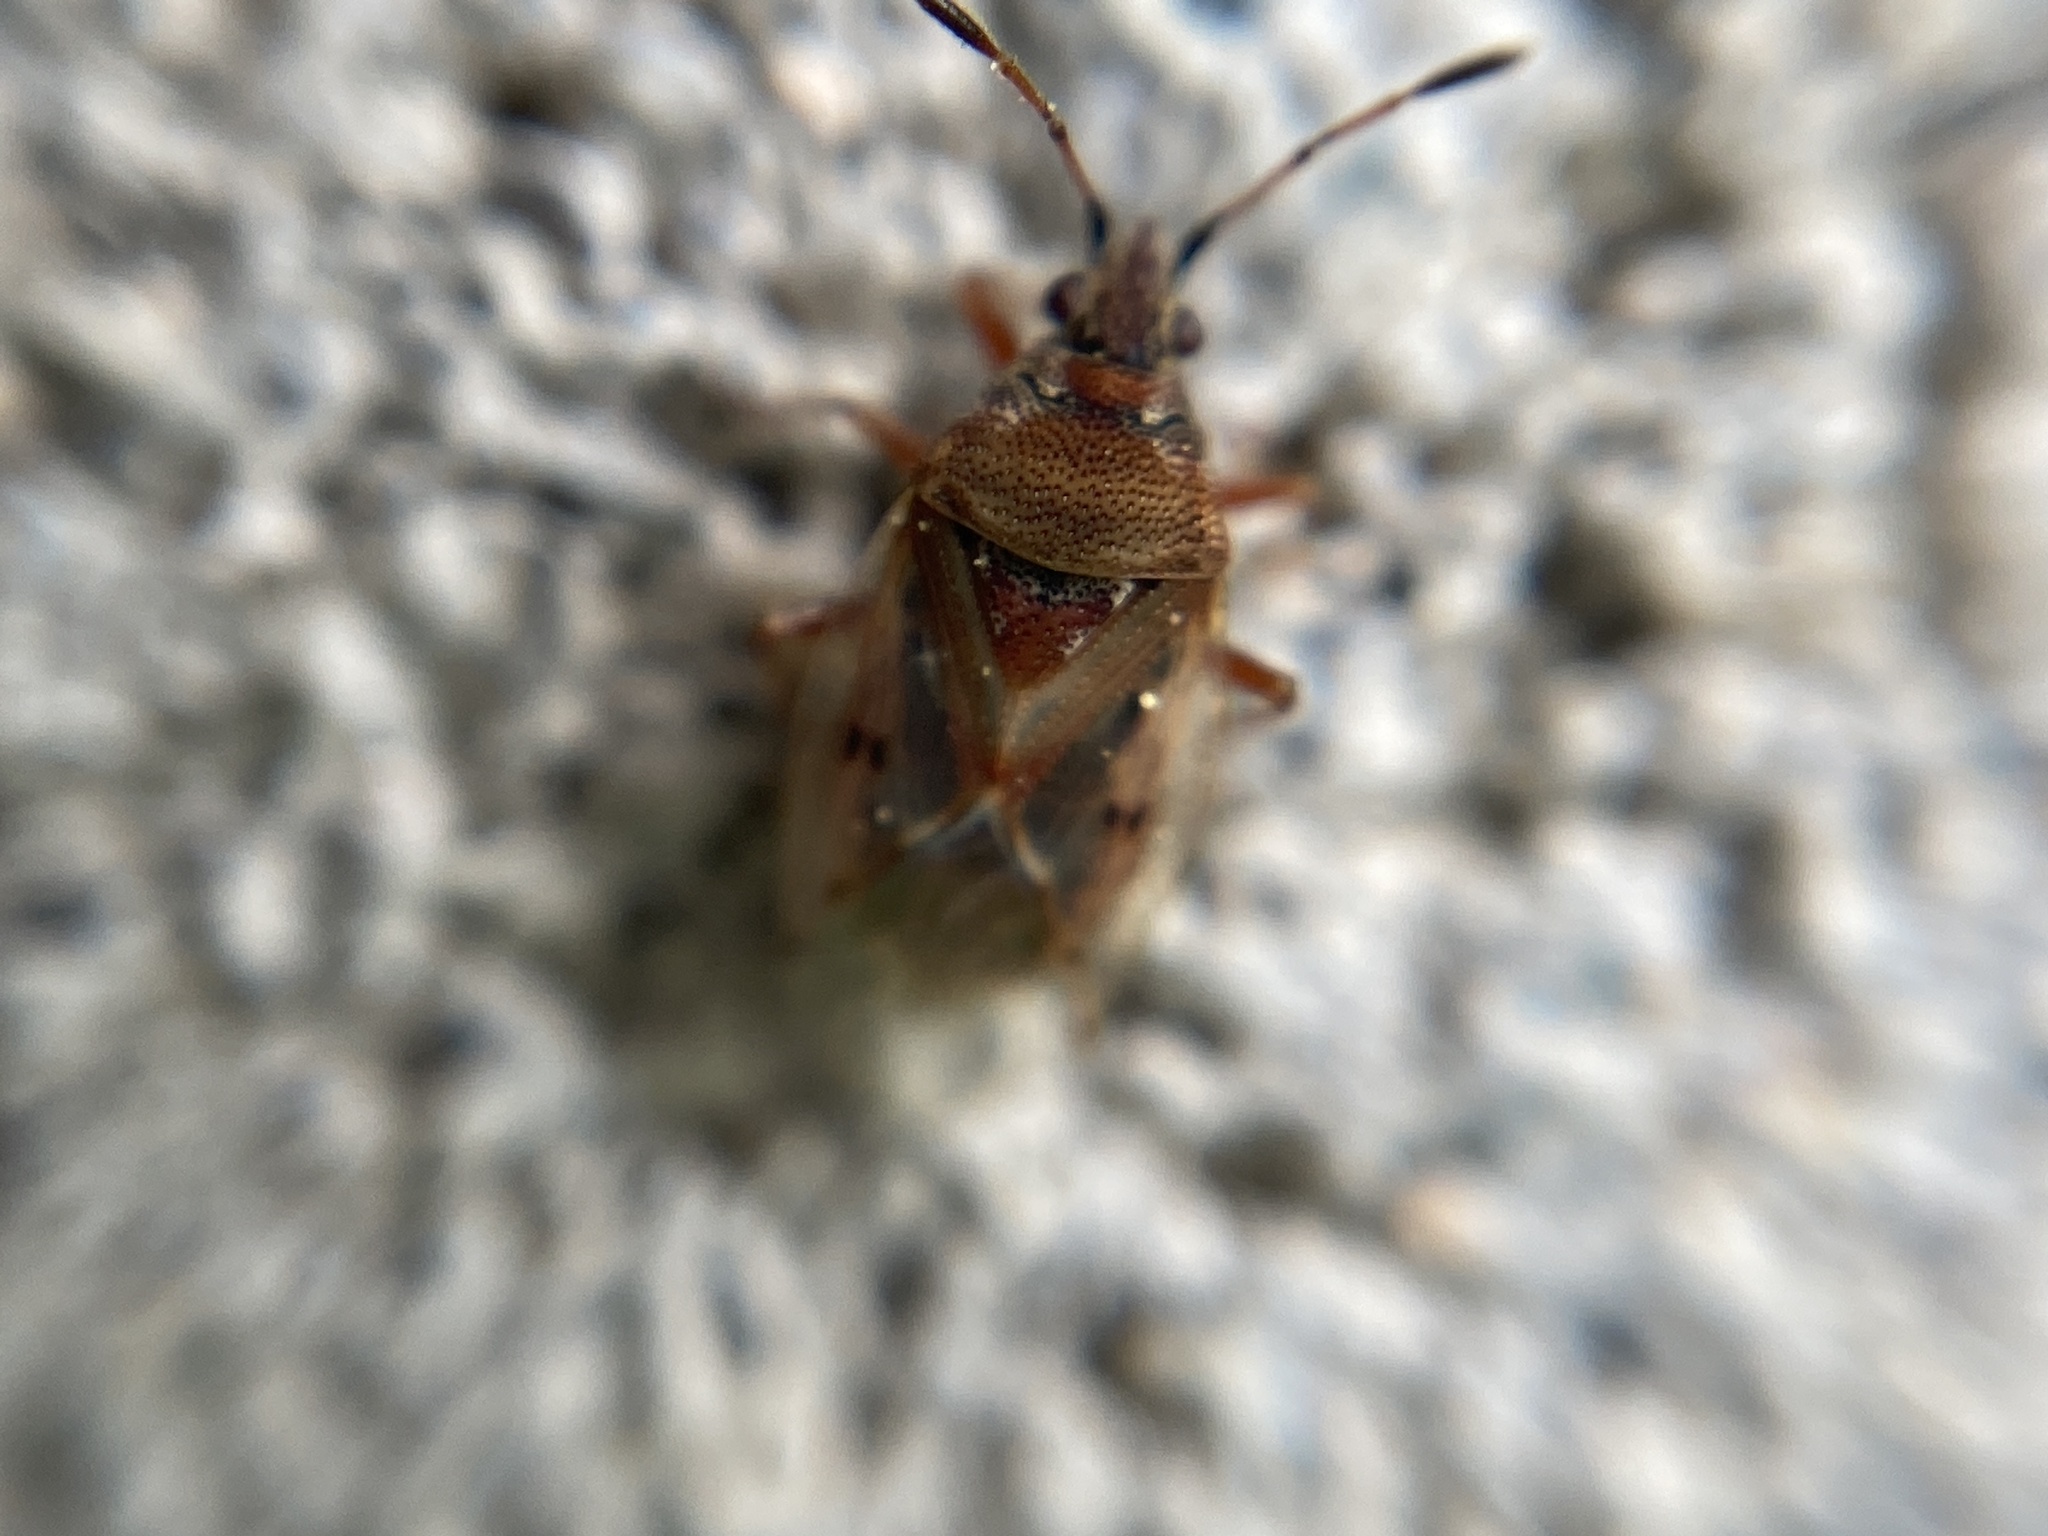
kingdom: Animalia
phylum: Arthropoda
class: Insecta
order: Hemiptera
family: Lygaeidae
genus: Kleidocerys
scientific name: Kleidocerys resedae
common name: Birch catkin bug
